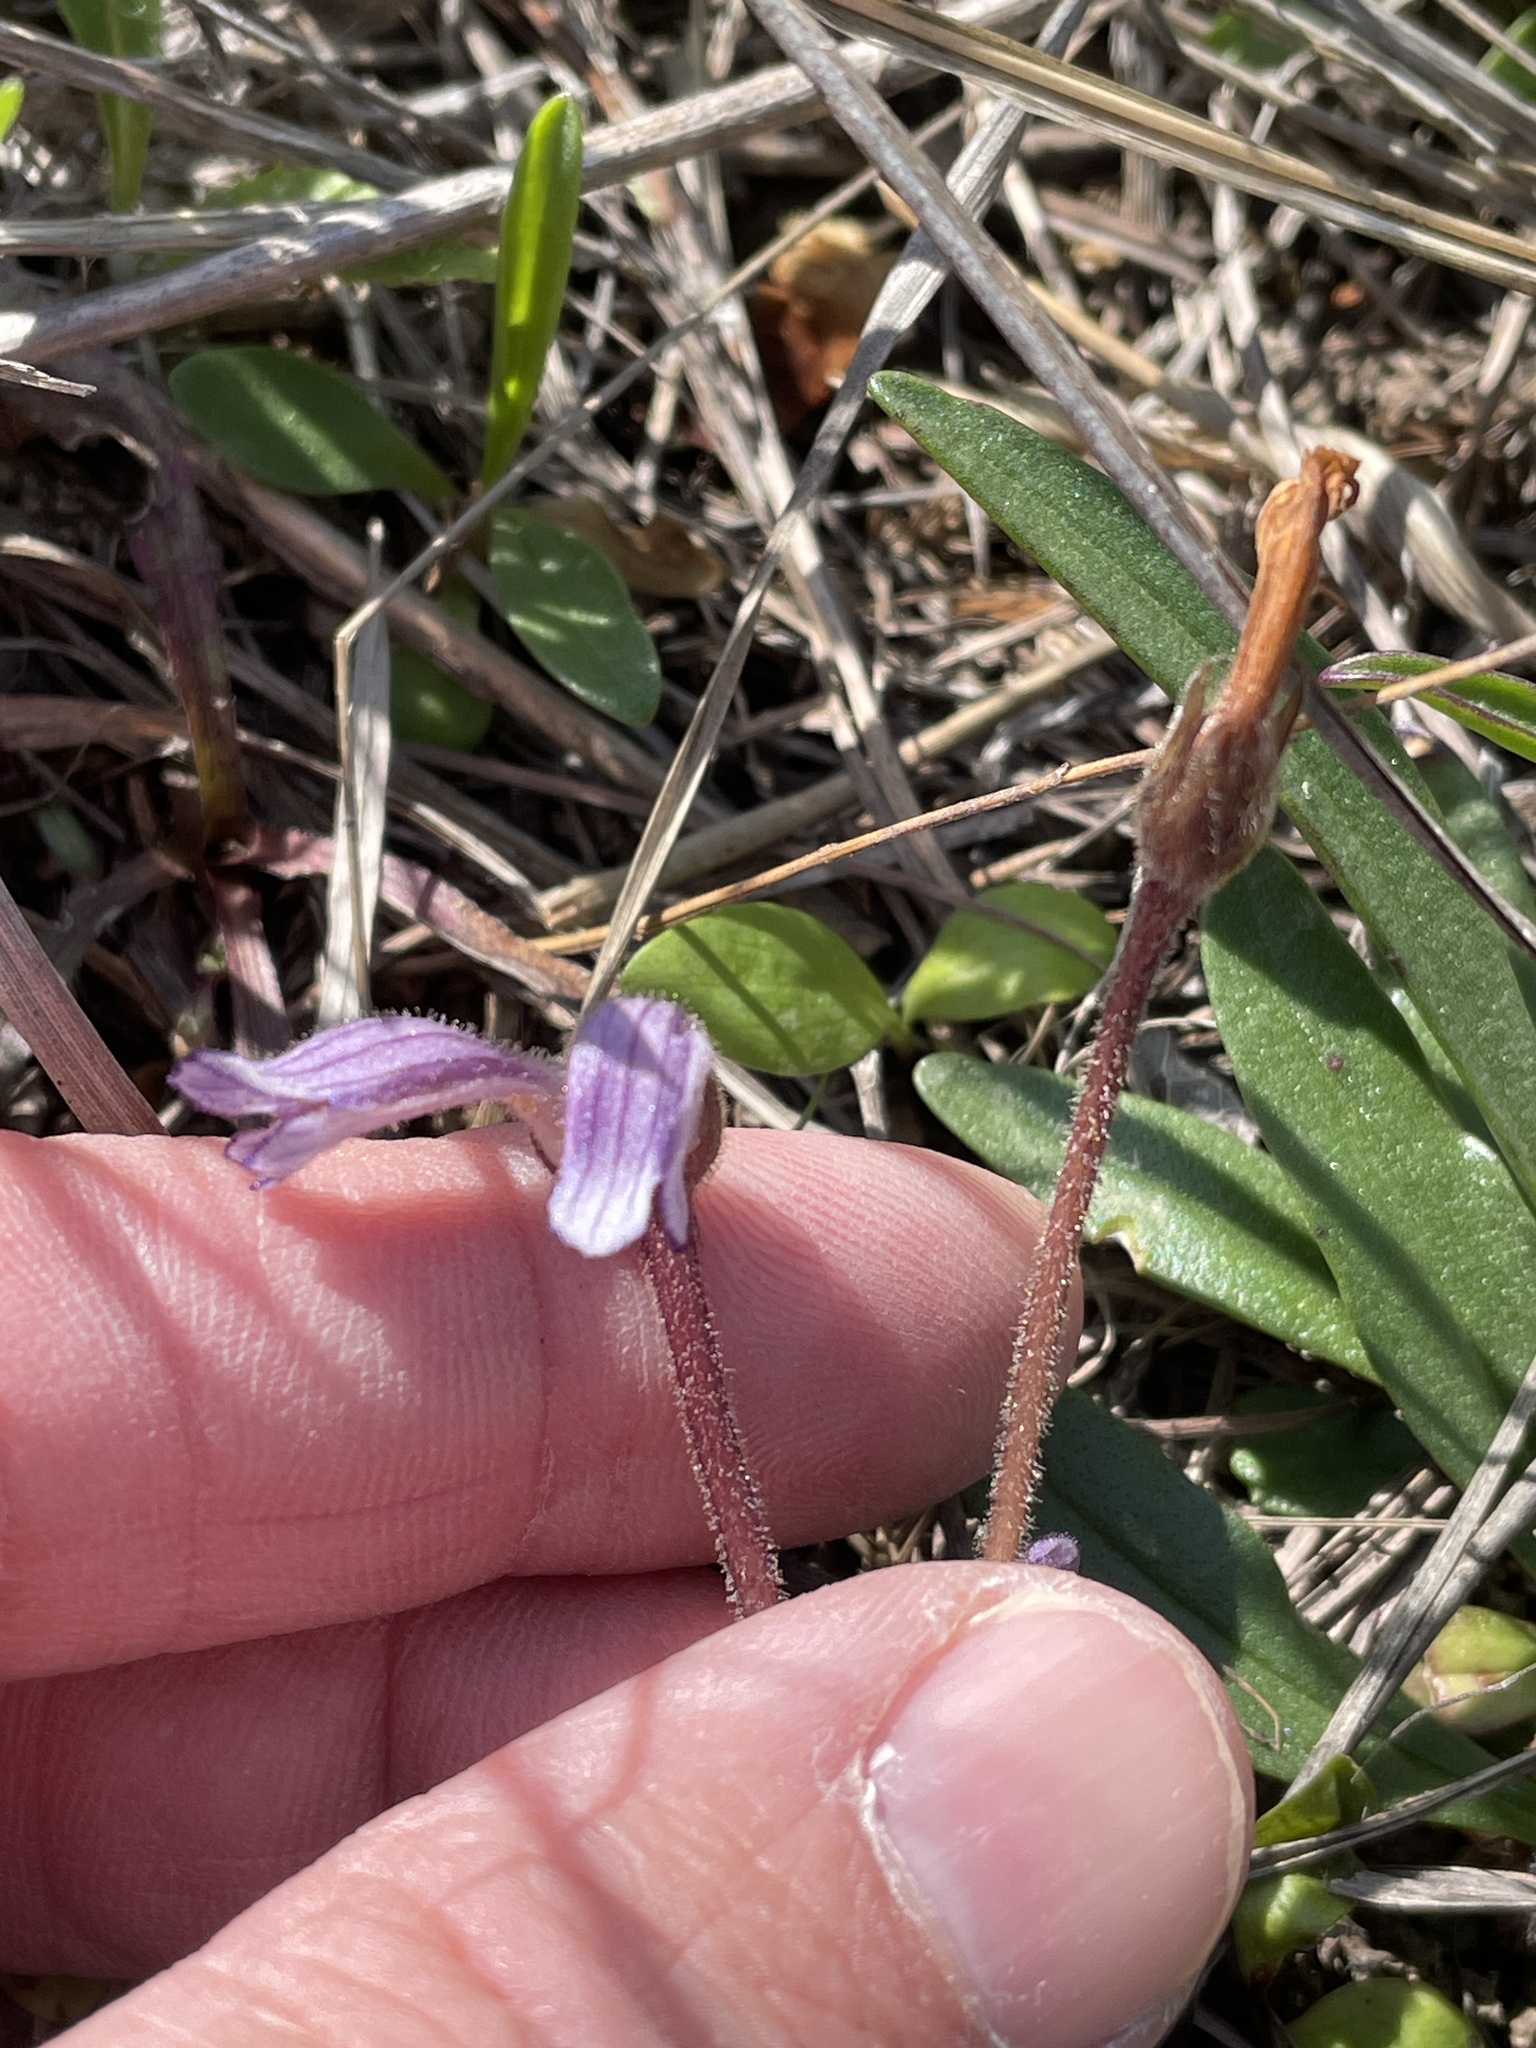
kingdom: Plantae
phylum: Tracheophyta
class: Magnoliopsida
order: Lamiales
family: Orobanchaceae
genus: Aphyllon
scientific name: Aphyllon uniflorum
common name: One-flowered broomrape
